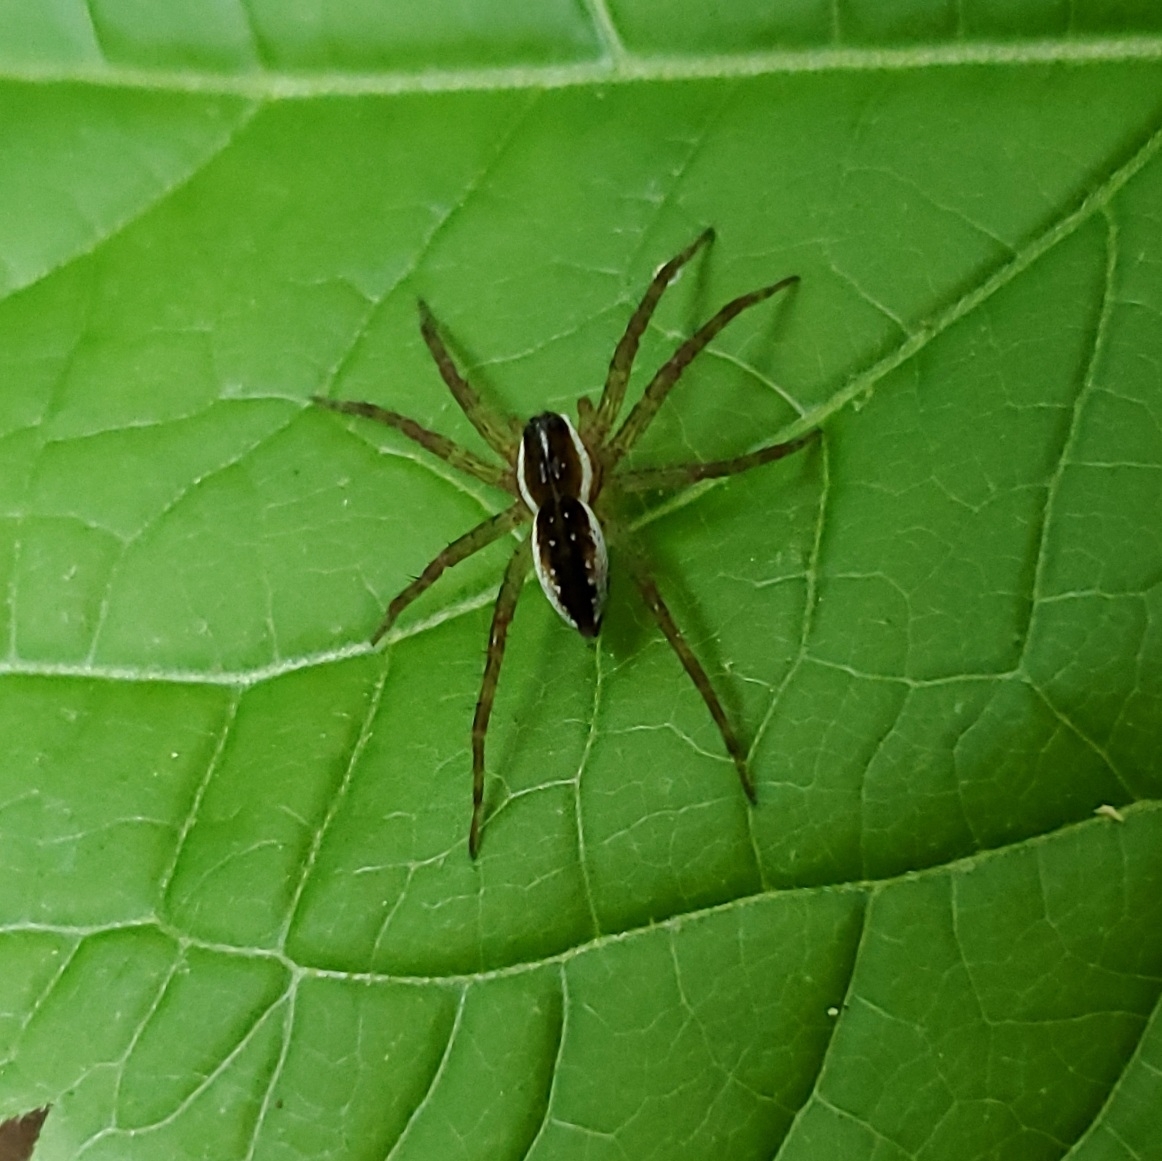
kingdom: Animalia
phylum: Arthropoda
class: Arachnida
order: Araneae
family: Pisauridae
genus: Dolomedes
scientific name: Dolomedes triton
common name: Six-spotted fishing spider
